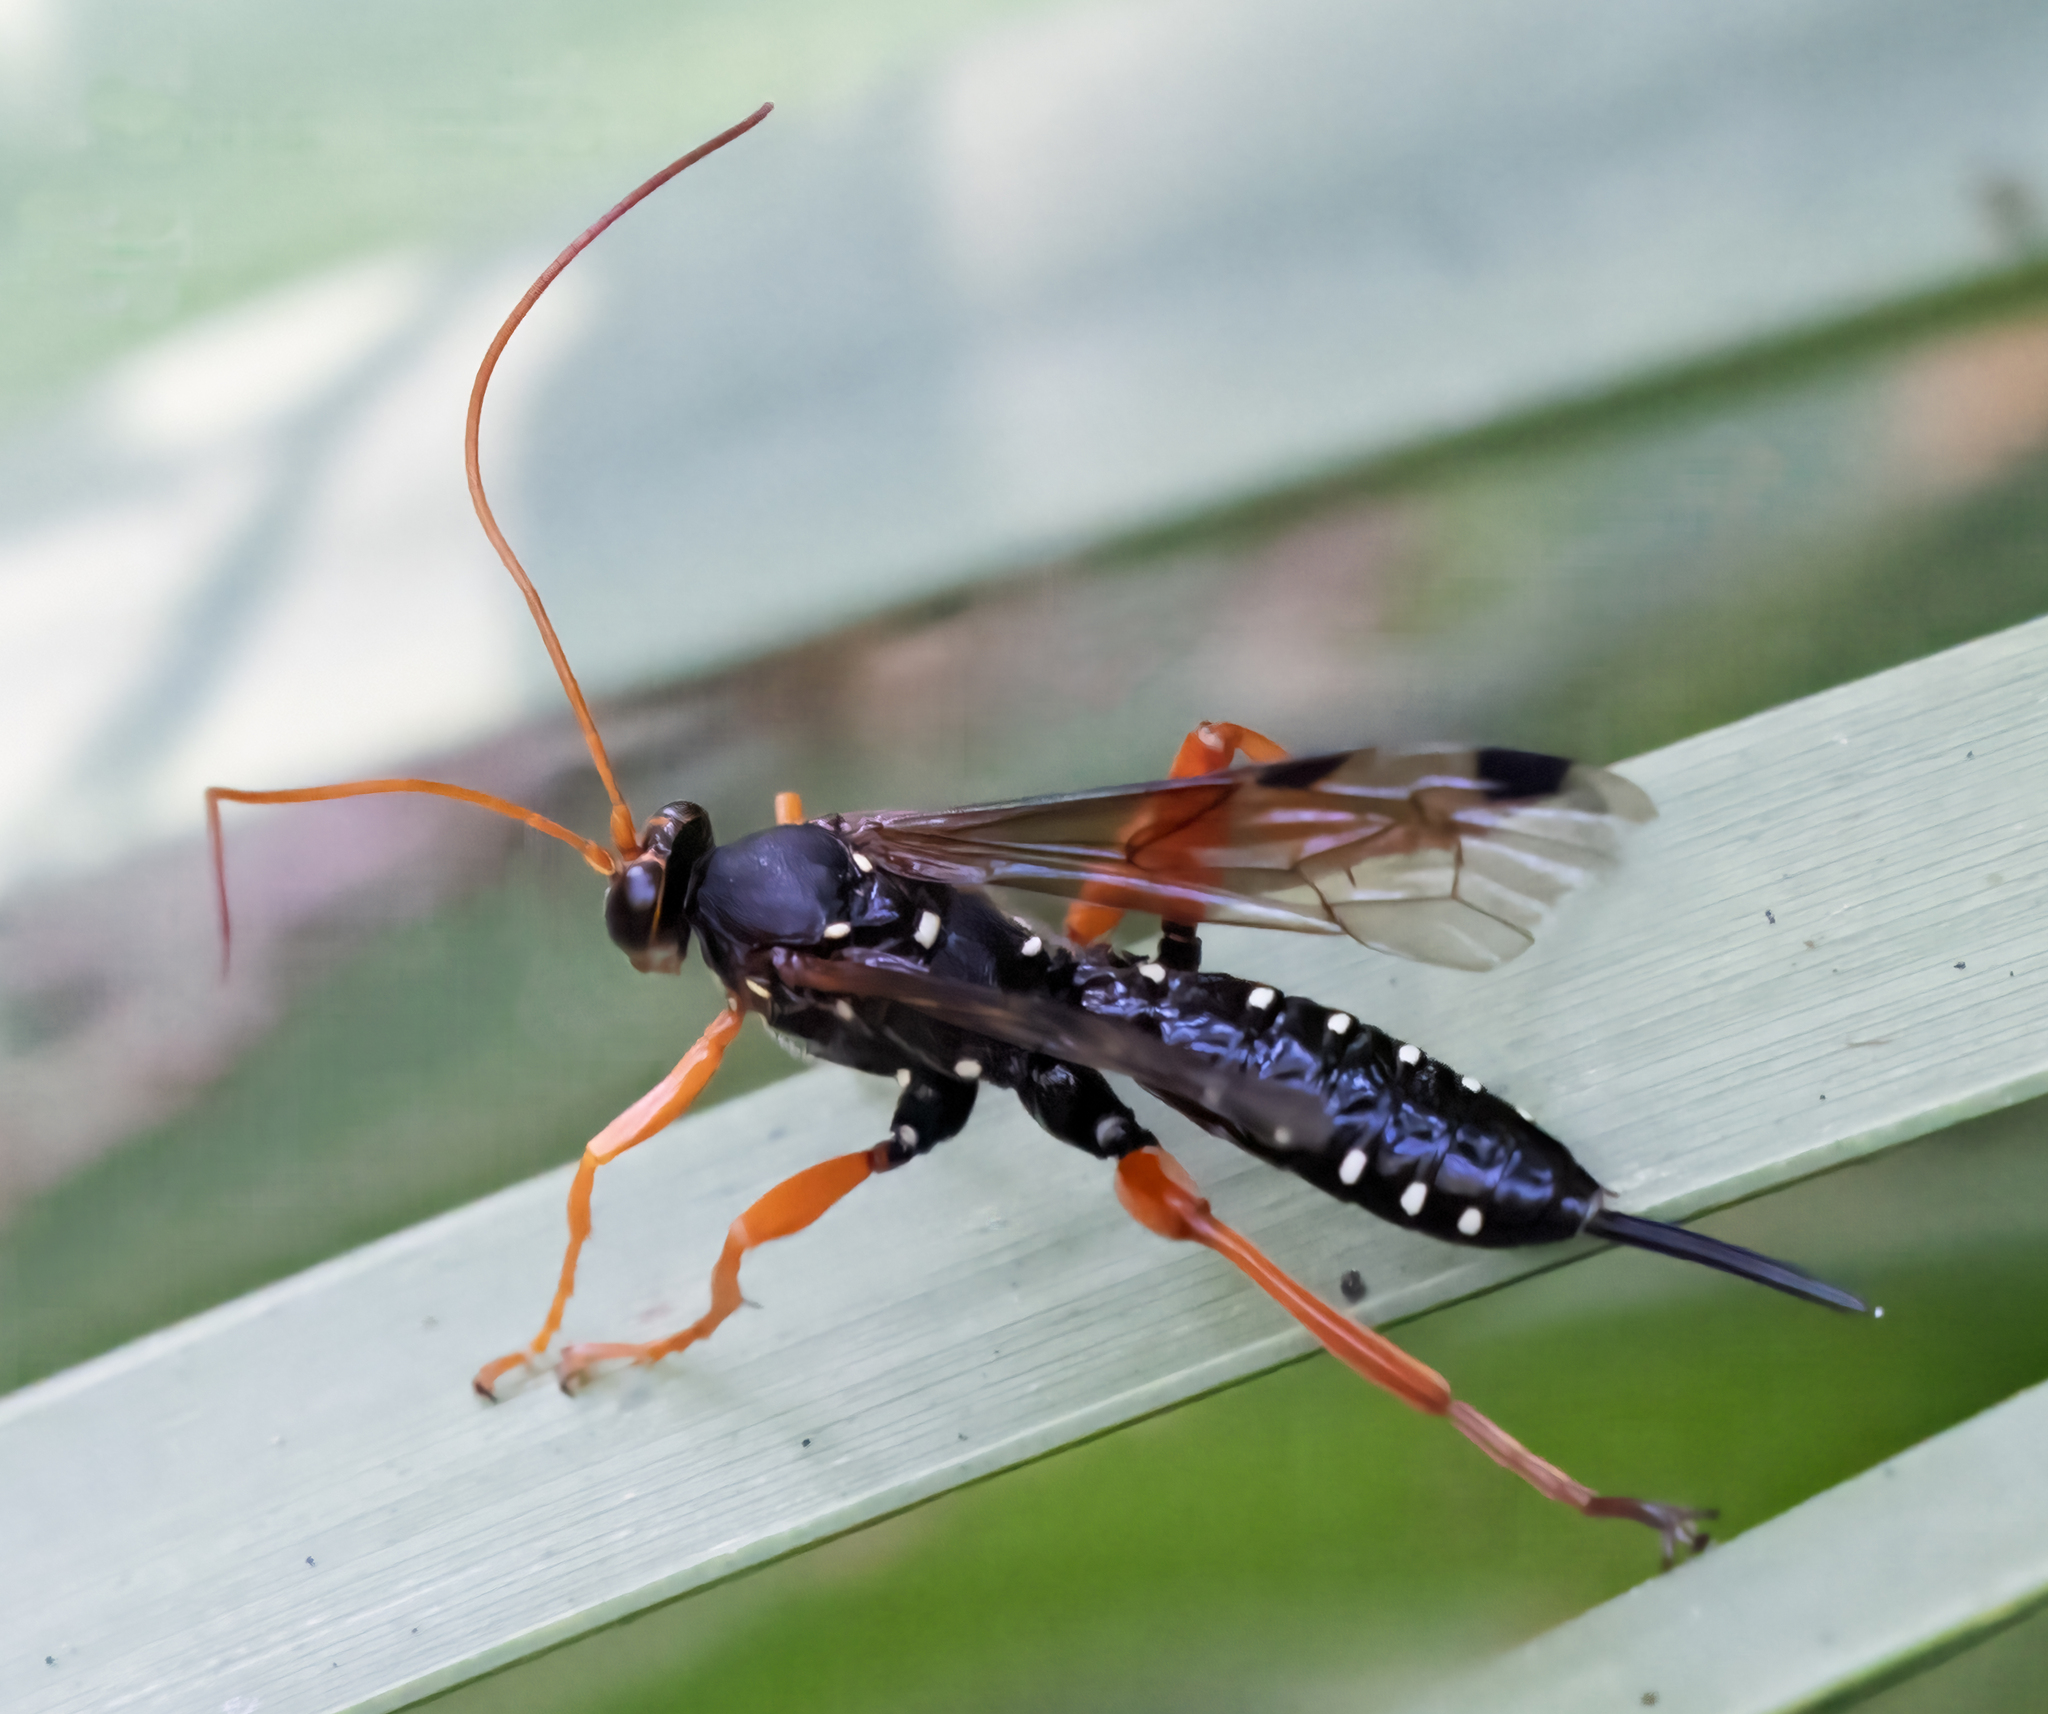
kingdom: Animalia
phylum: Arthropoda
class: Insecta
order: Hymenoptera
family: Ichneumonidae
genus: Echthromorpha
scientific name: Echthromorpha intricatoria
